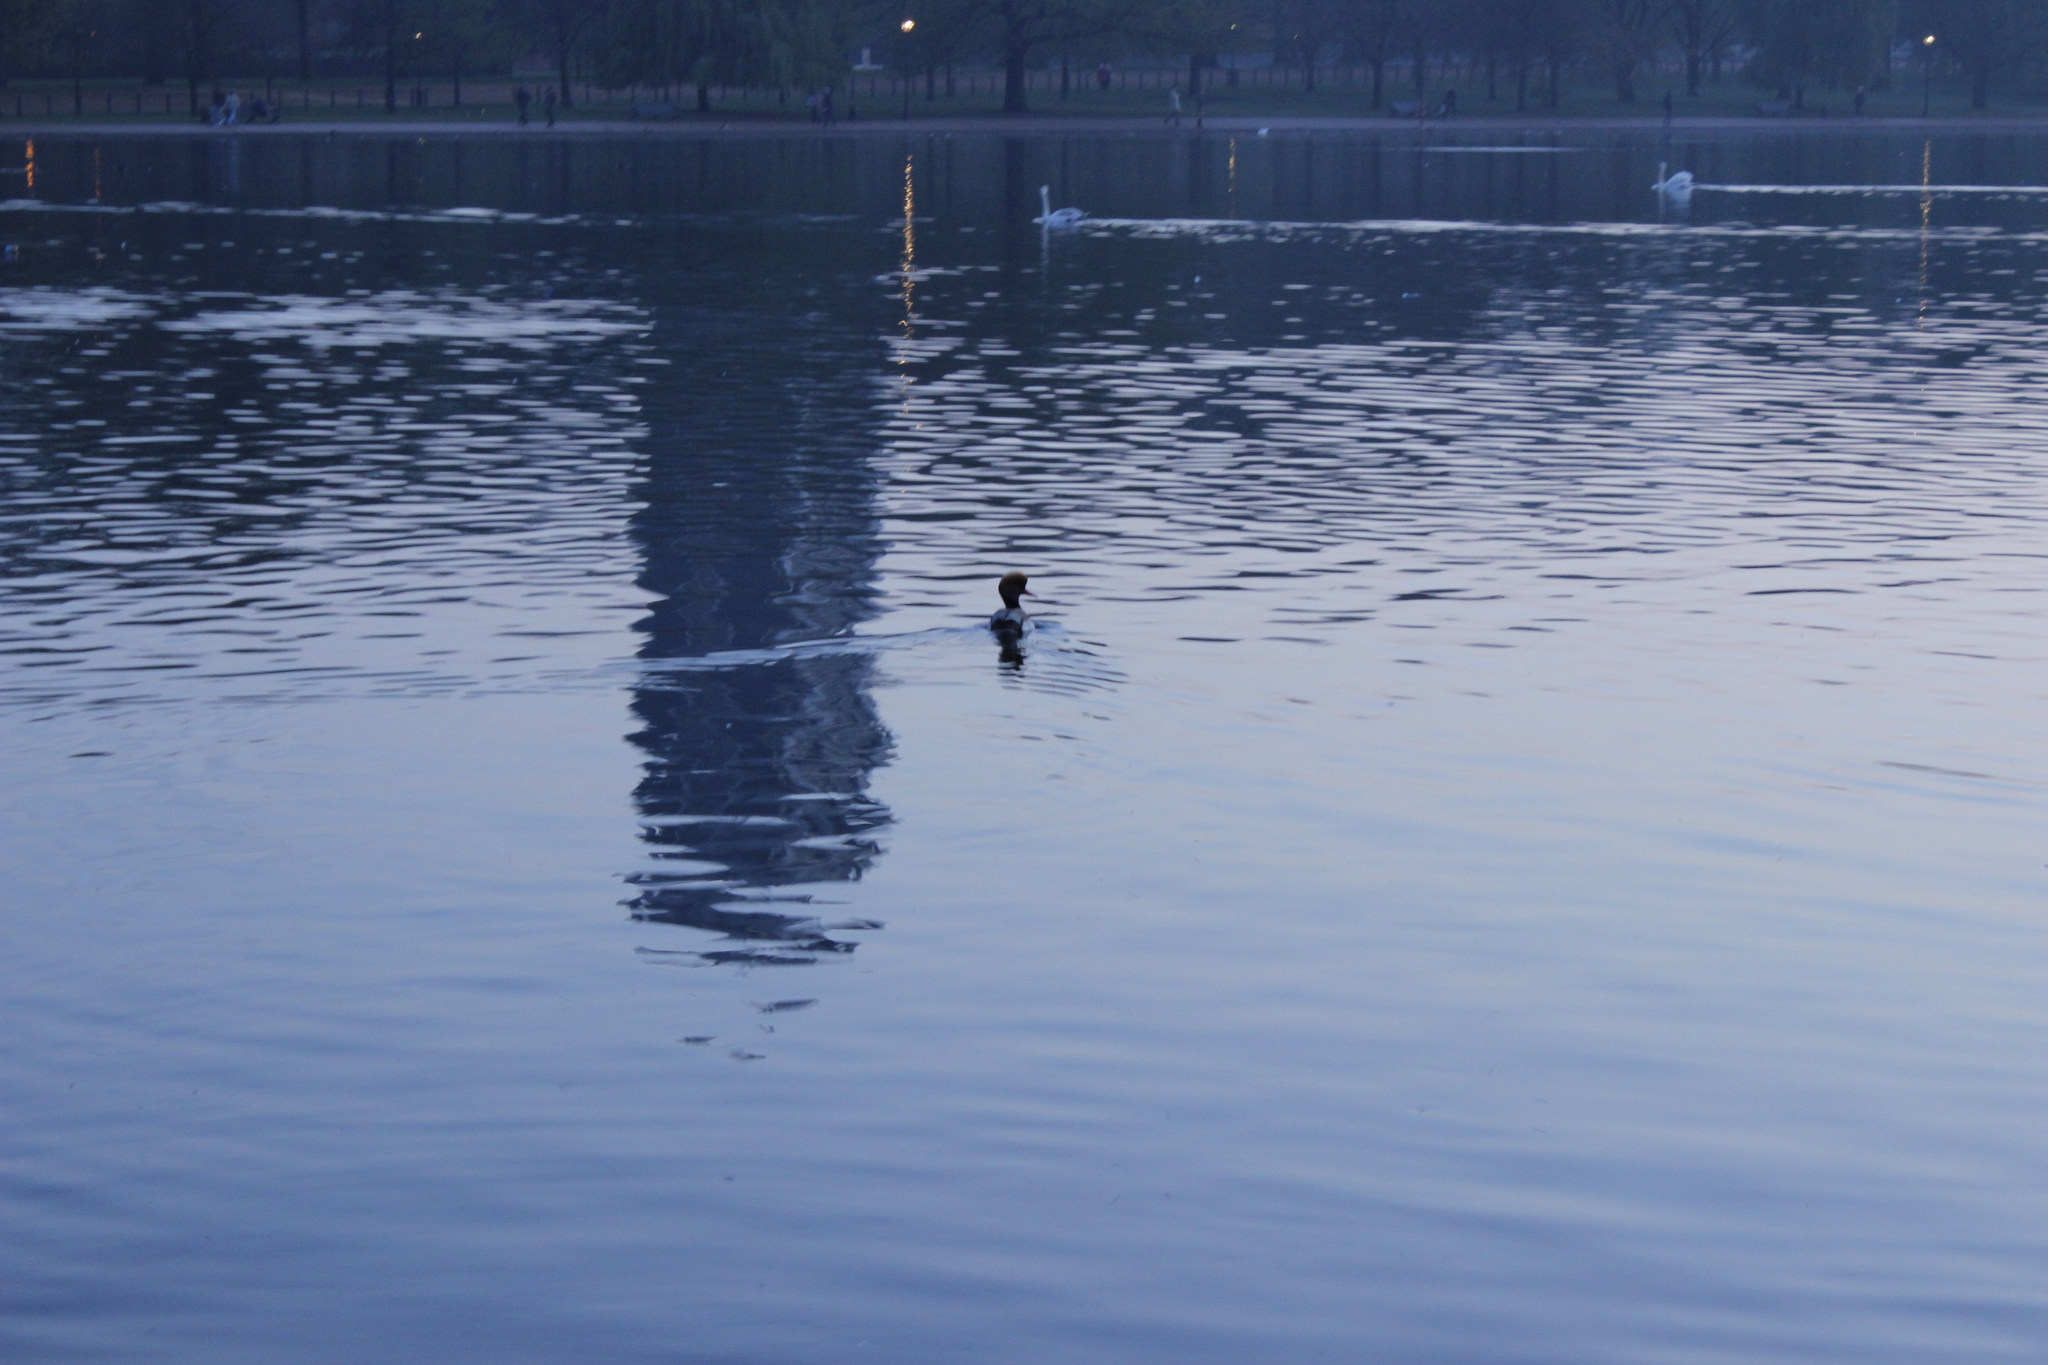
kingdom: Animalia
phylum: Chordata
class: Aves
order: Anseriformes
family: Anatidae
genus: Netta
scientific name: Netta rufina
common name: Red-crested pochard
